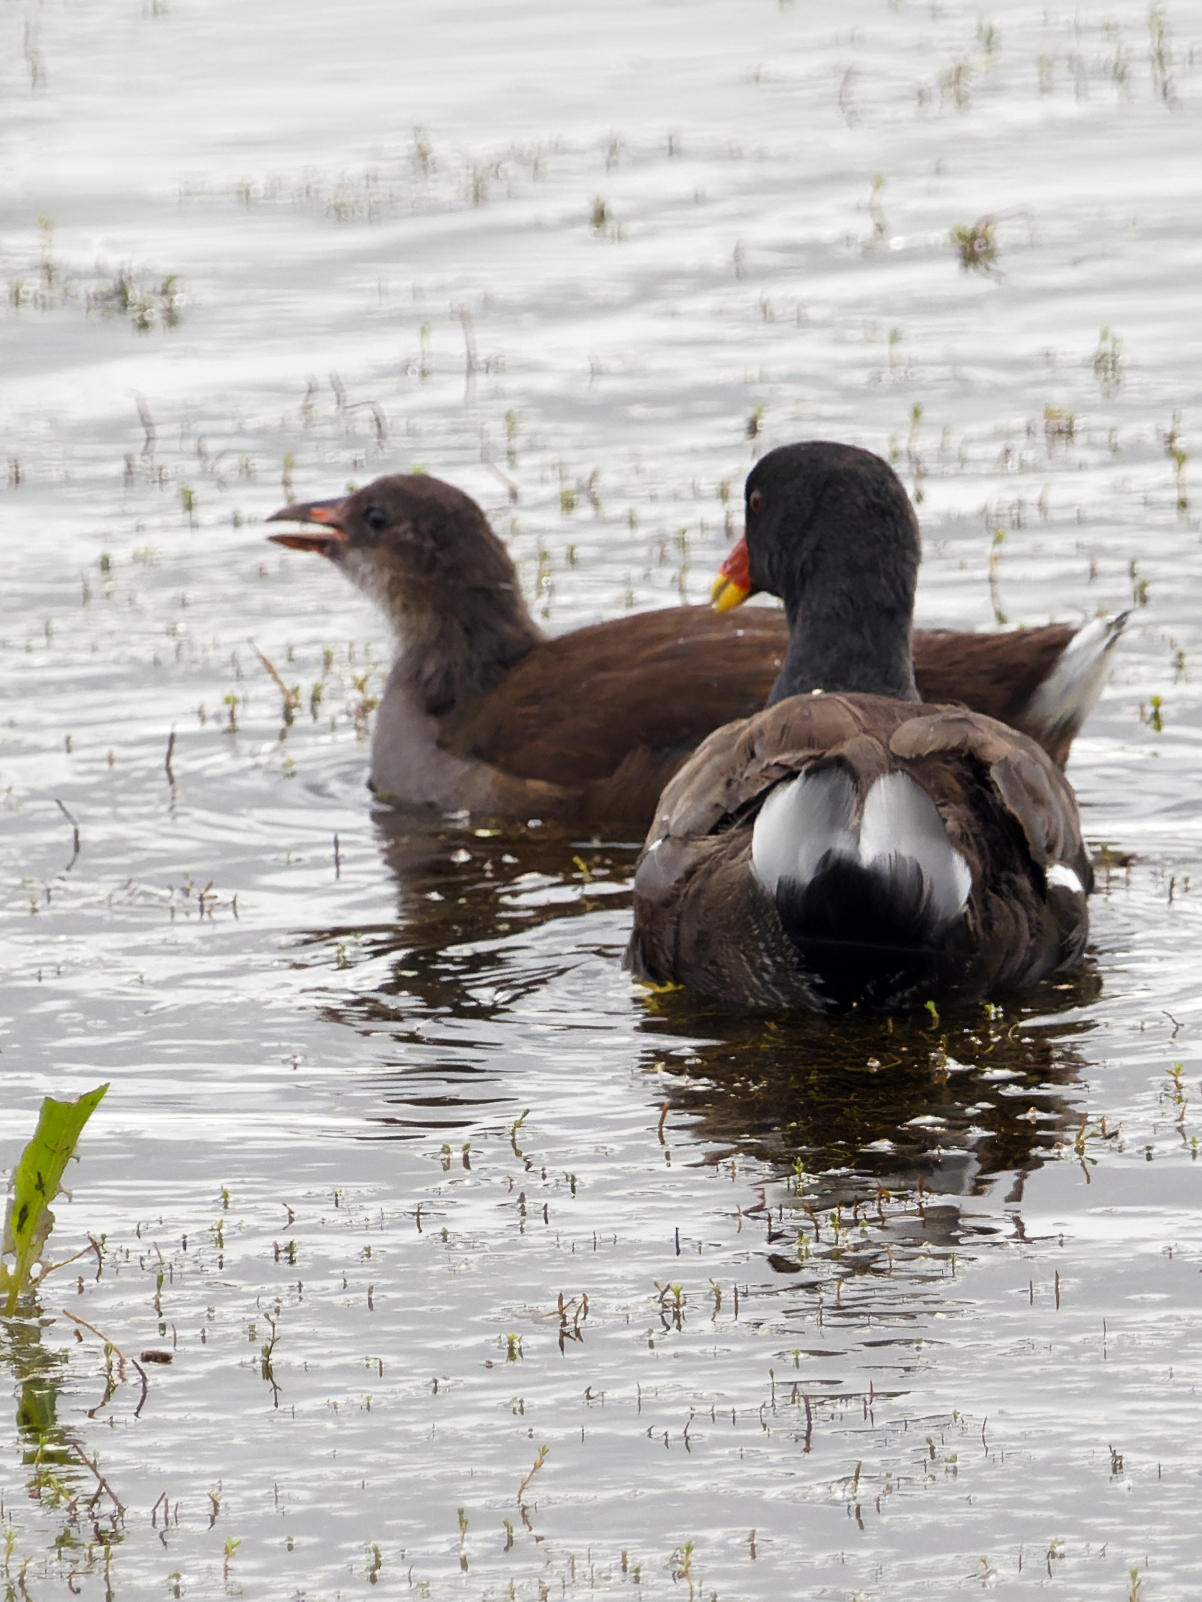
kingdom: Animalia
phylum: Chordata
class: Aves
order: Gruiformes
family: Rallidae
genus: Gallinula
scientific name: Gallinula chloropus
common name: Common moorhen
